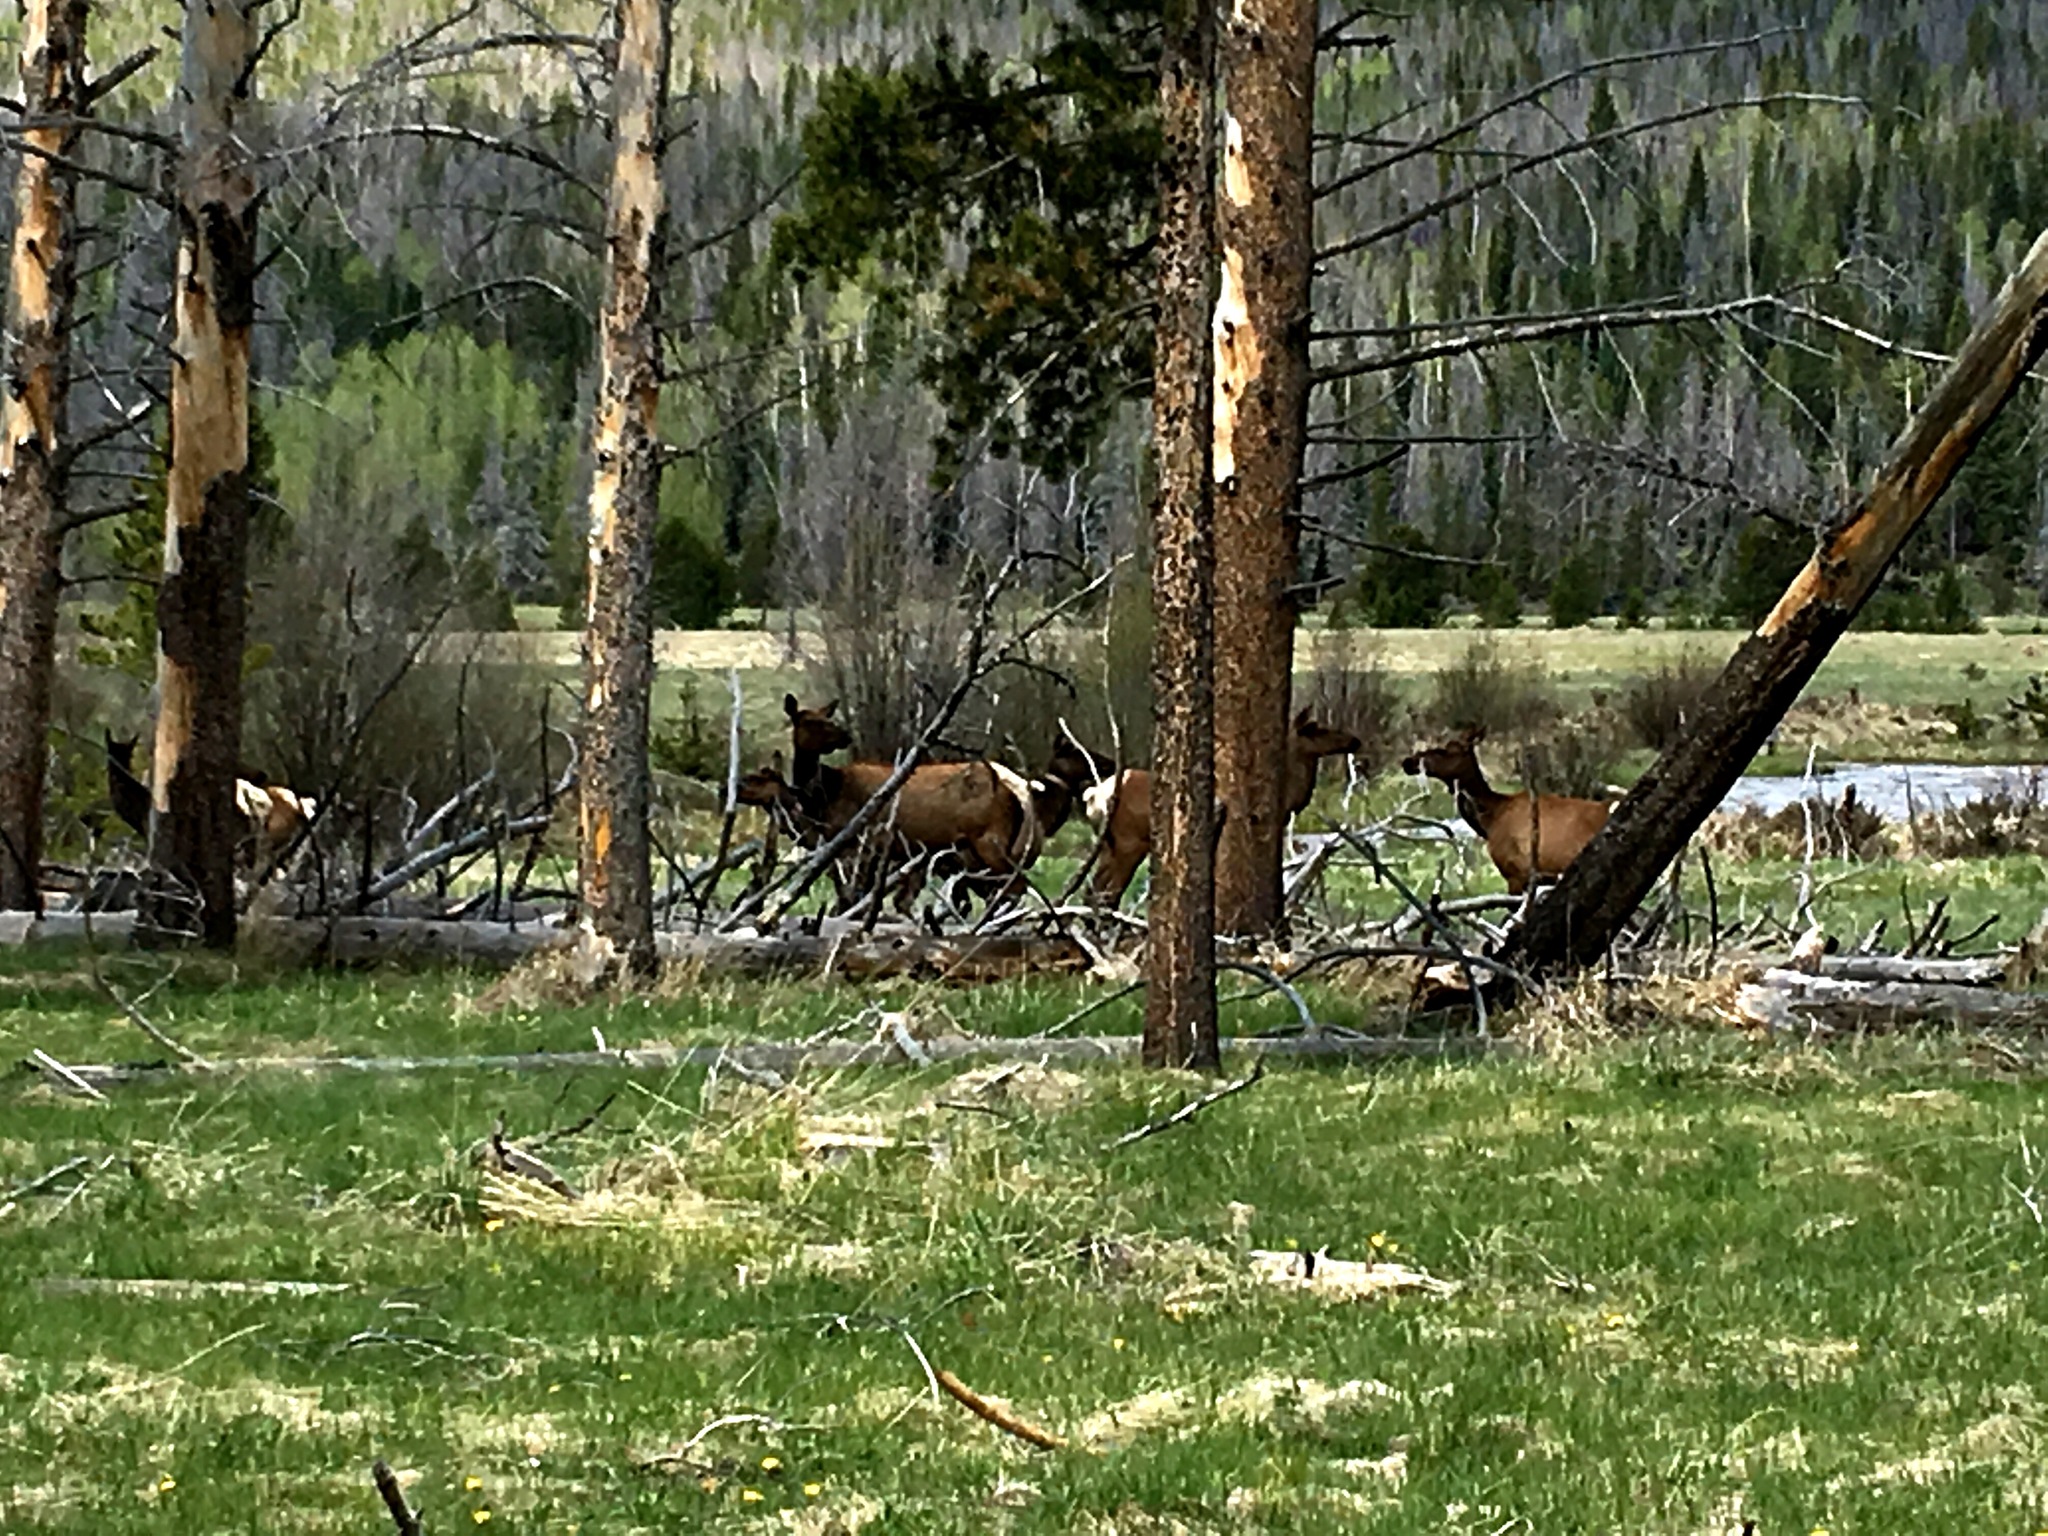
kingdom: Animalia
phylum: Chordata
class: Mammalia
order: Artiodactyla
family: Cervidae
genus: Cervus
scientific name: Cervus elaphus
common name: Red deer
